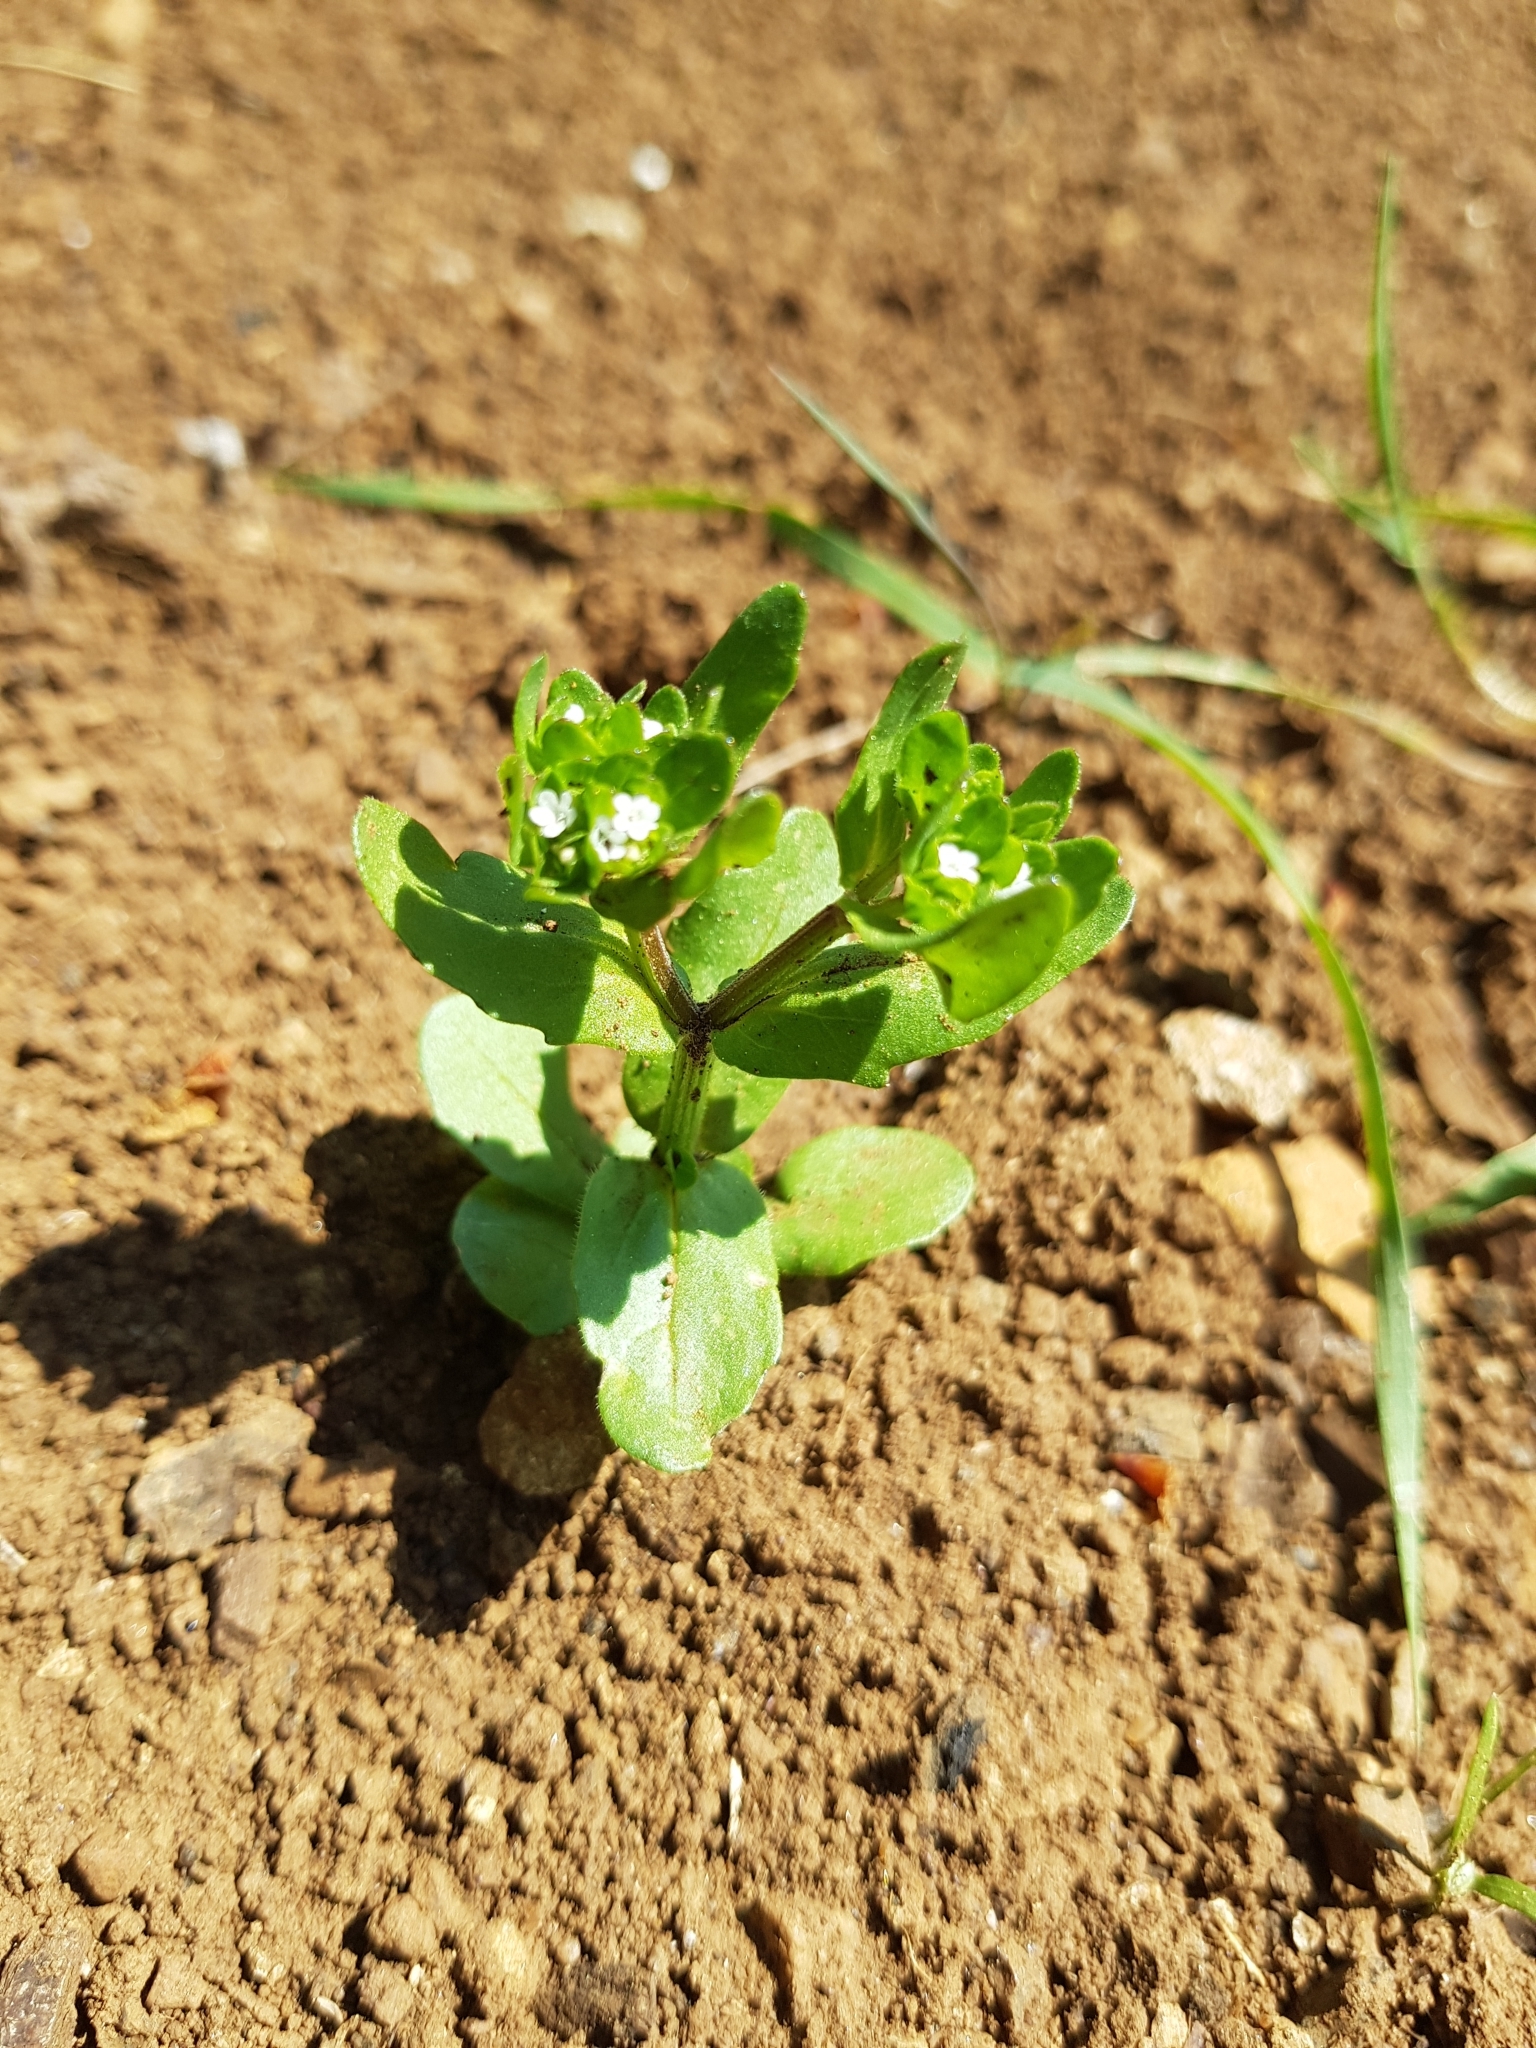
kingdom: Plantae
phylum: Tracheophyta
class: Magnoliopsida
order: Dipsacales
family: Caprifoliaceae
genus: Valerianella
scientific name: Valerianella locusta
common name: Common cornsalad
